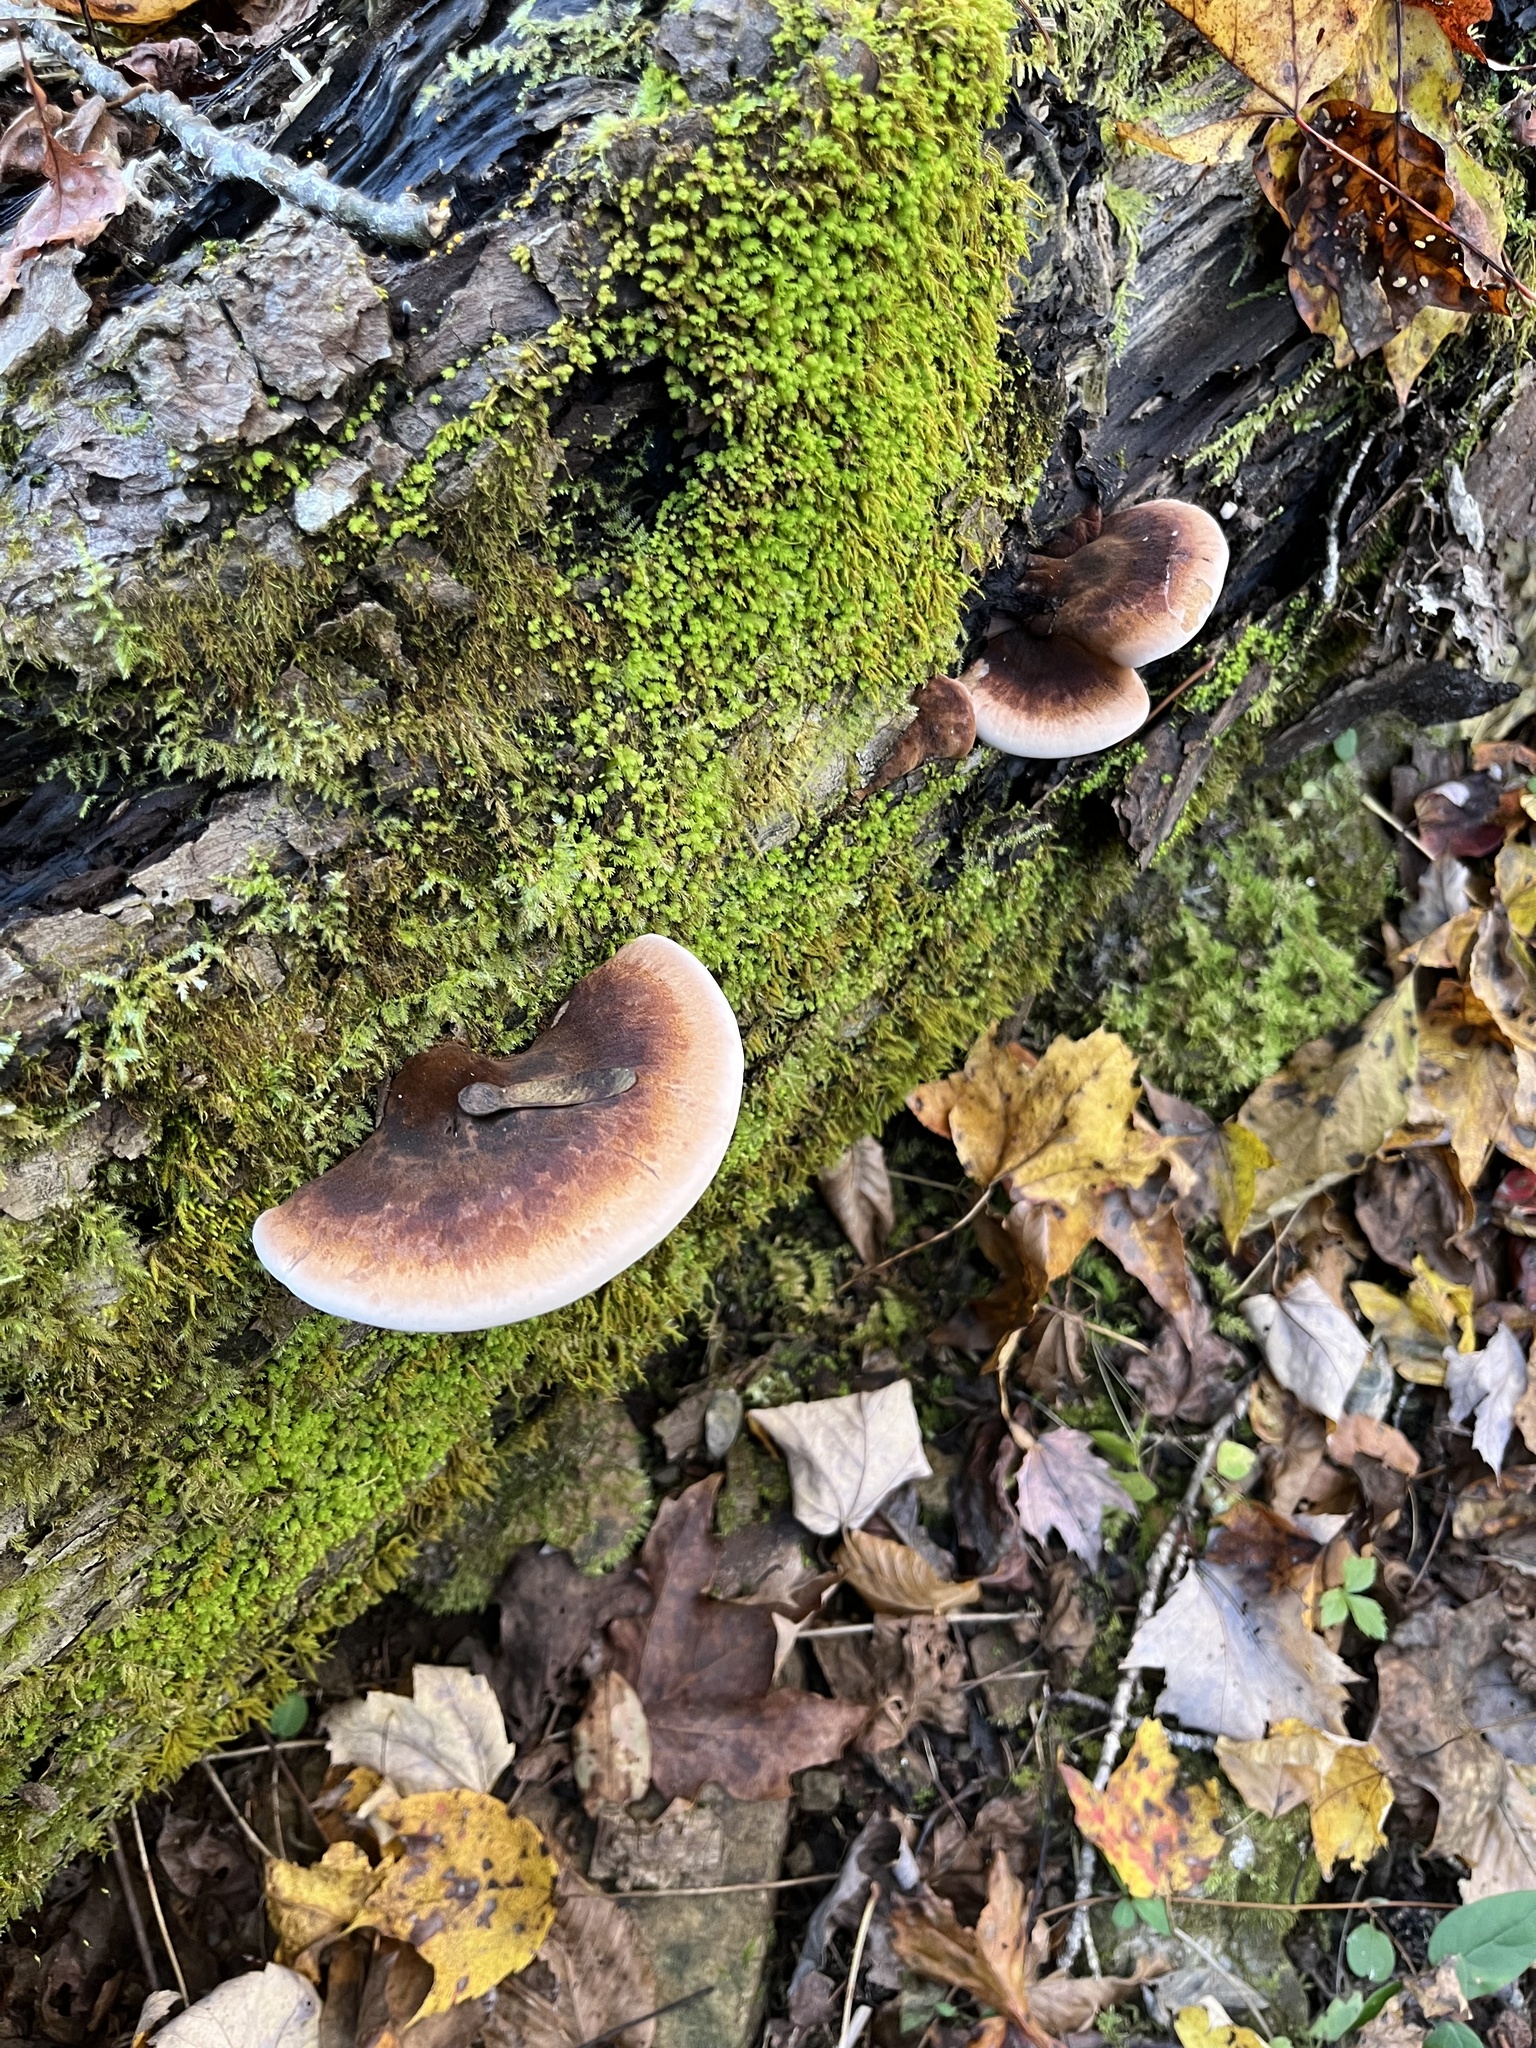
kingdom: Fungi
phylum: Basidiomycota
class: Agaricomycetes
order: Polyporales
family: Ischnodermataceae
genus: Ischnoderma
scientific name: Ischnoderma resinosum
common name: Resinous polypore
